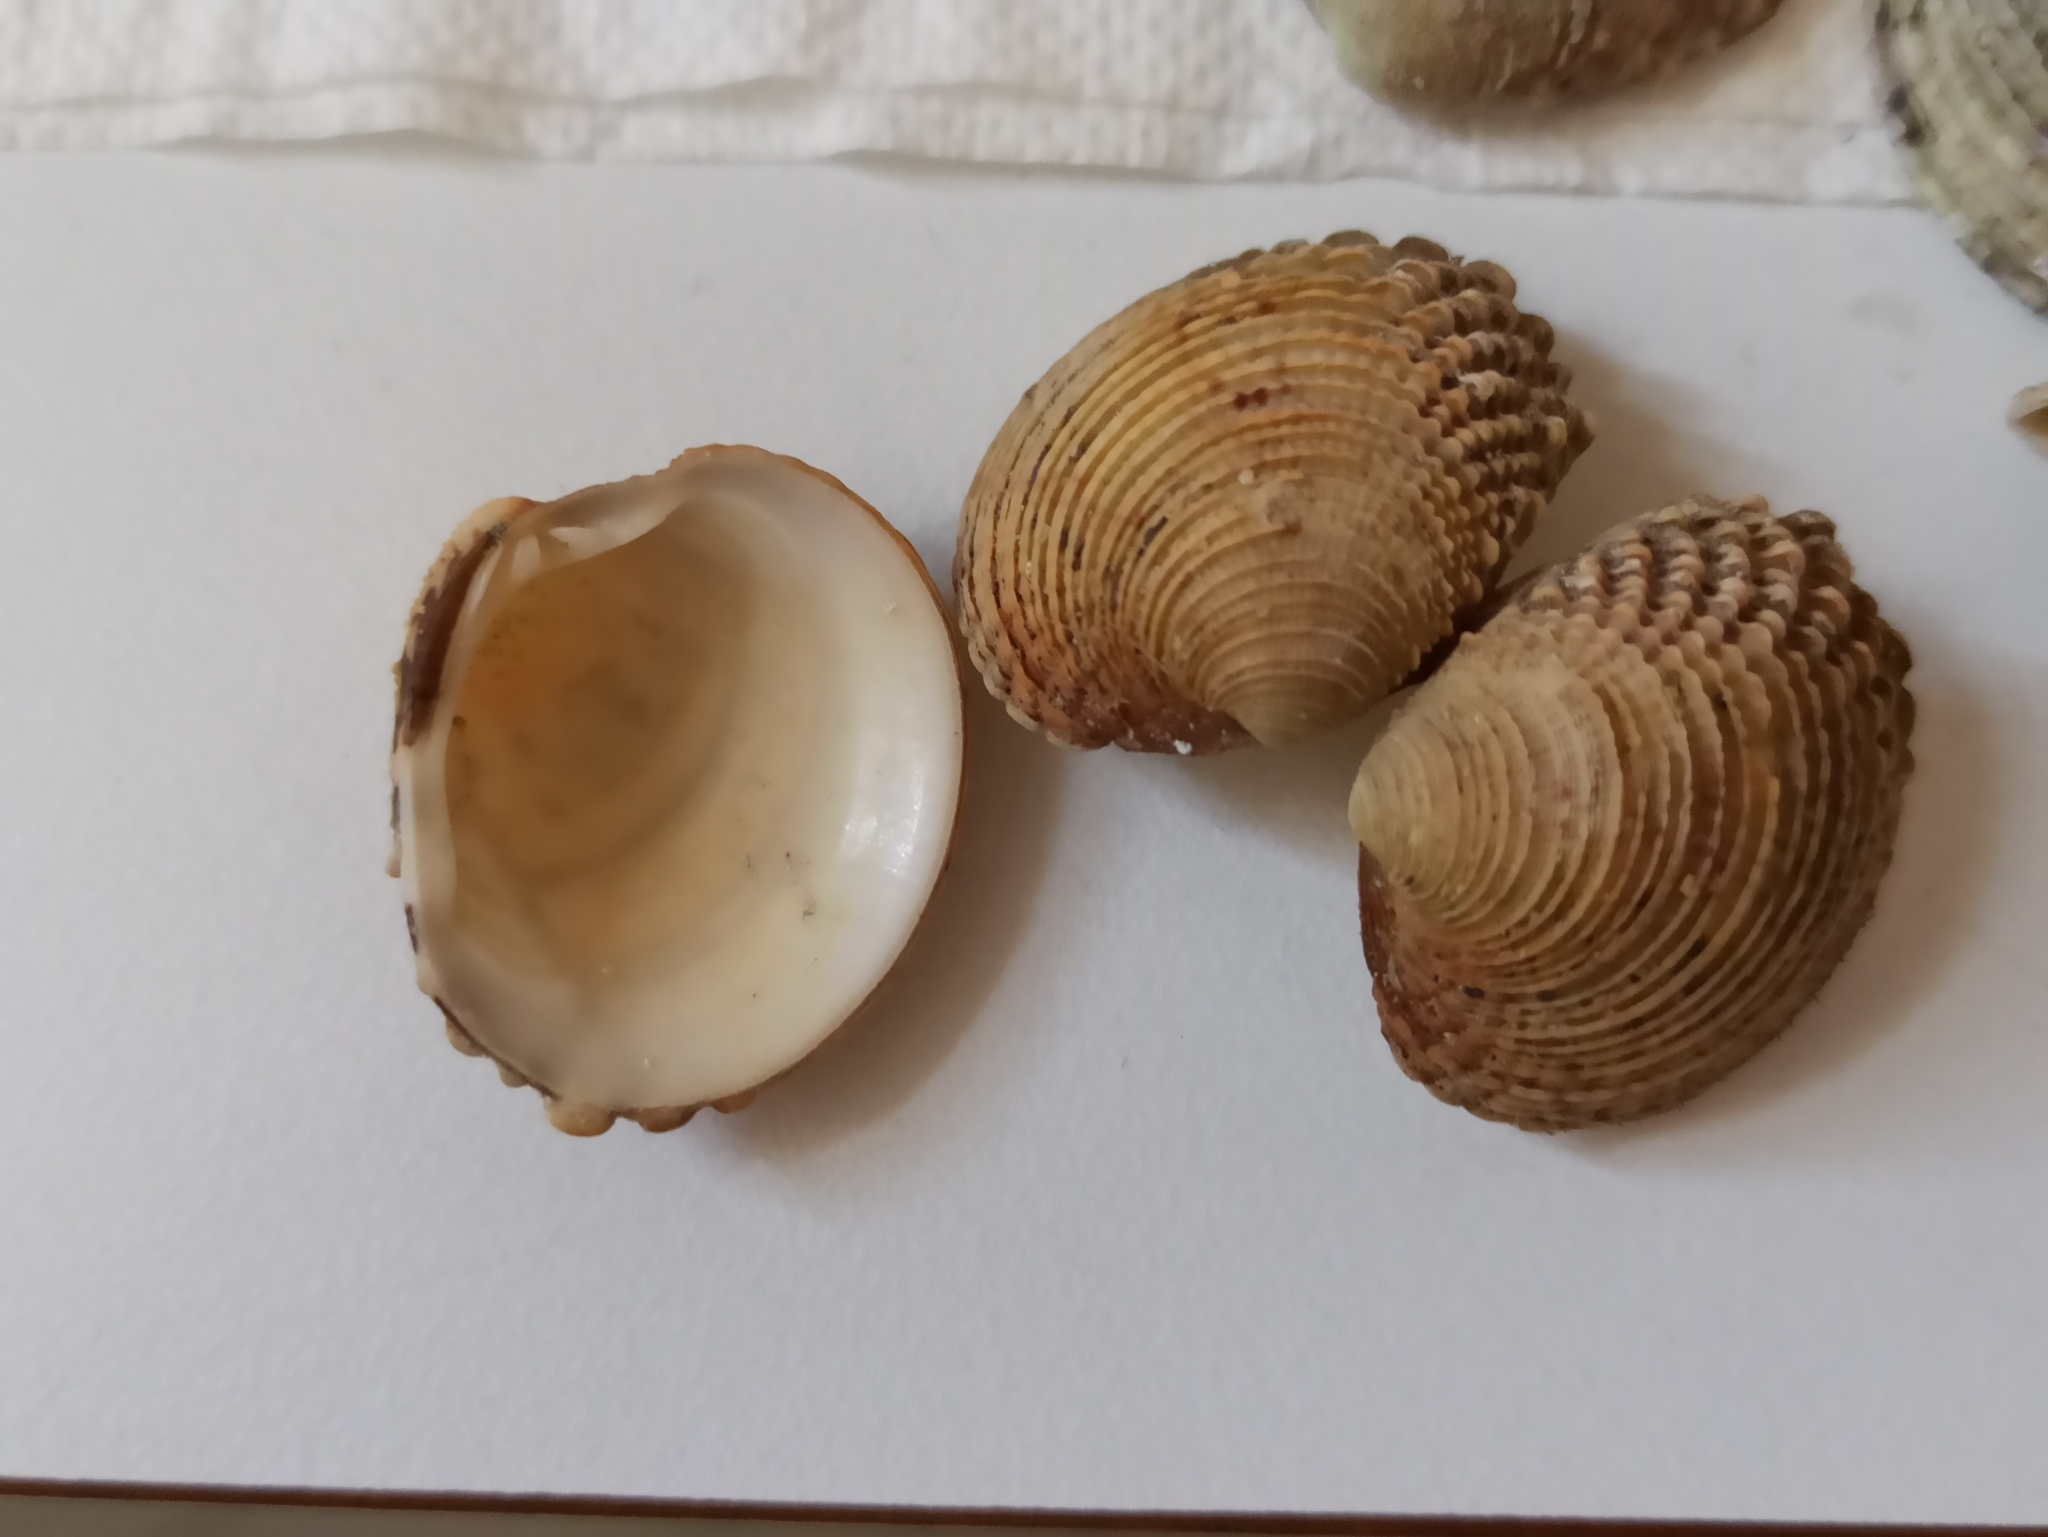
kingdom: Animalia
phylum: Mollusca
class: Bivalvia
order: Venerida
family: Veneridae
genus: Venus
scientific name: Venus verrucosa
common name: Warty venus
